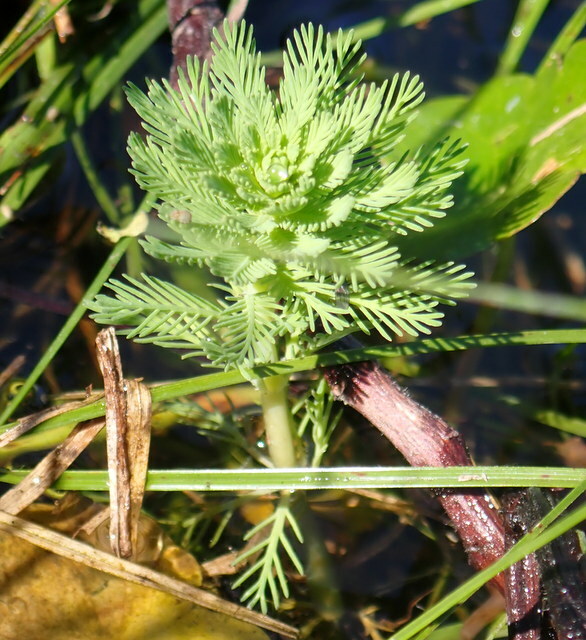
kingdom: Plantae
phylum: Tracheophyta
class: Magnoliopsida
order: Saxifragales
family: Haloragaceae
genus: Myriophyllum
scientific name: Myriophyllum aquaticum
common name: Parrot's feather
